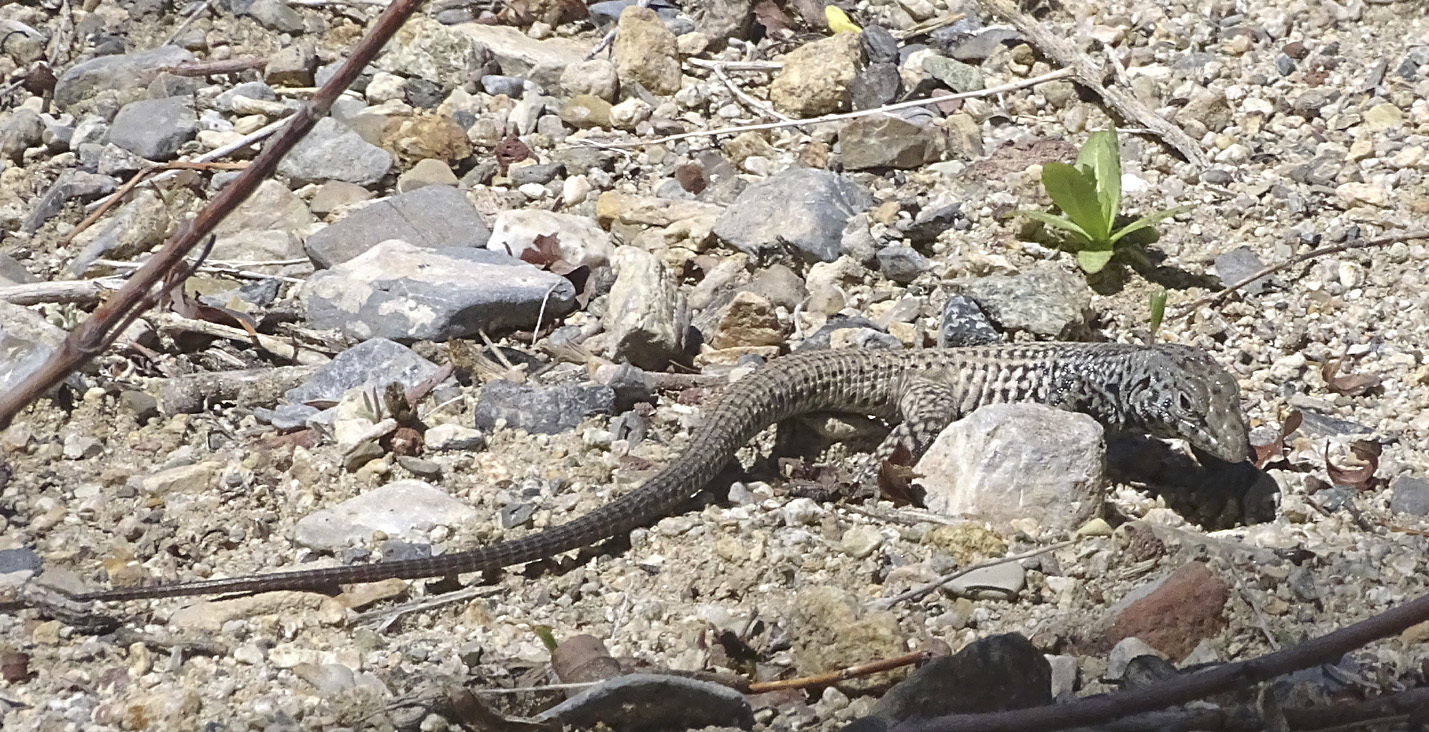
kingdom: Animalia
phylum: Chordata
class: Squamata
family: Teiidae
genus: Aspidoscelis
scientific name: Aspidoscelis tigris
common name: Tiger whiptail
